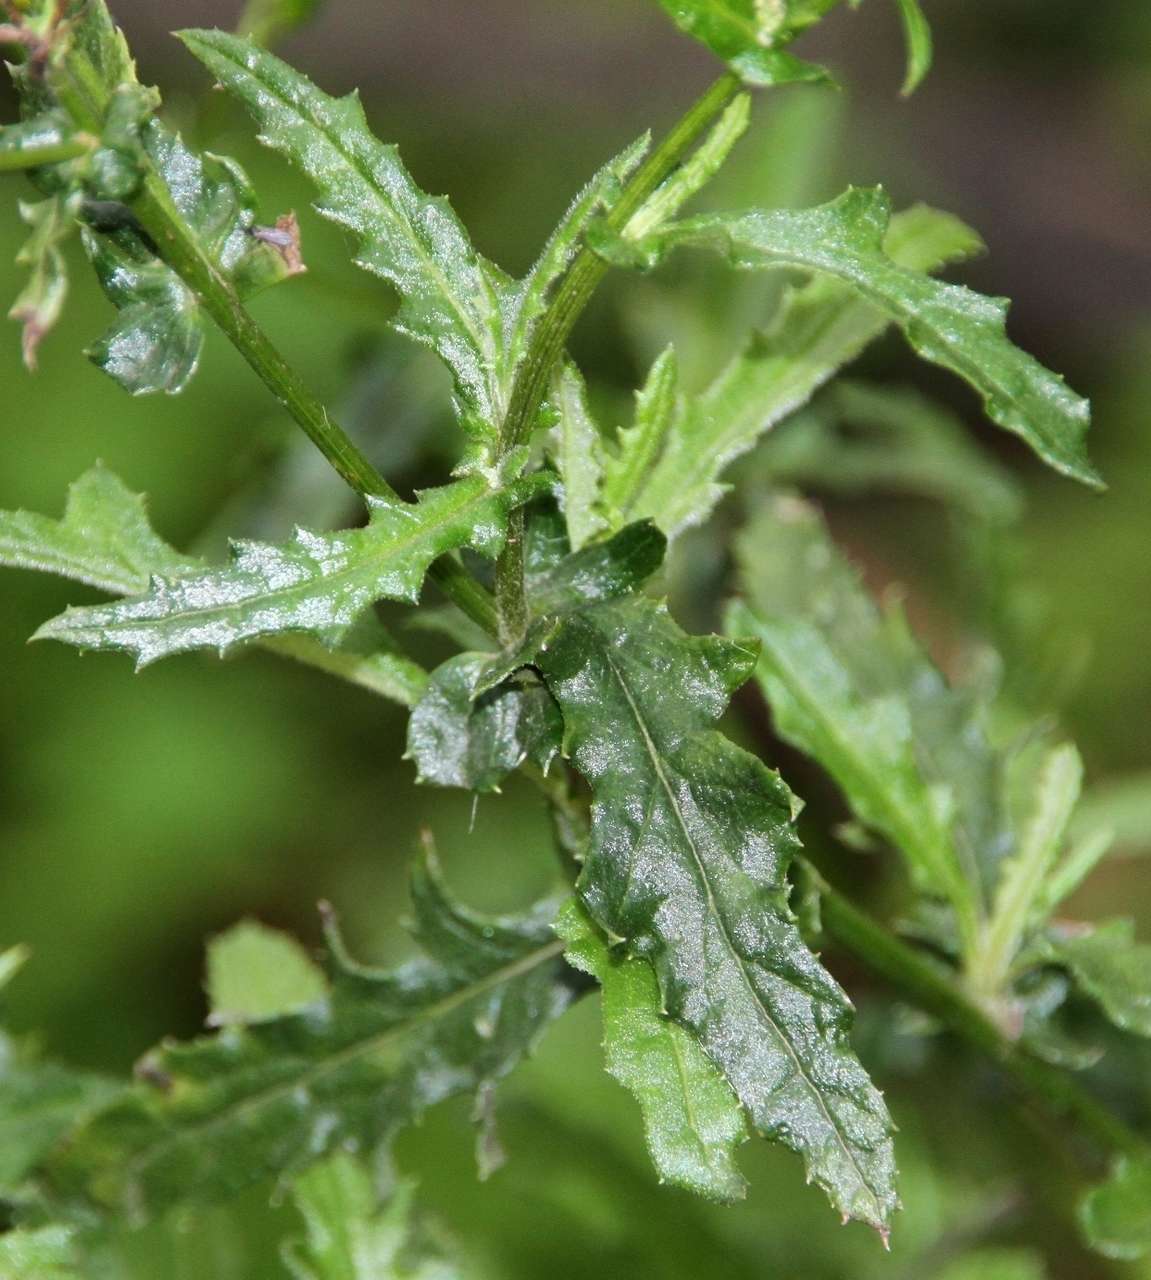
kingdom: Plantae
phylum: Tracheophyta
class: Magnoliopsida
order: Asterales
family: Asteraceae
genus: Senecio
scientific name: Senecio hispidulus
